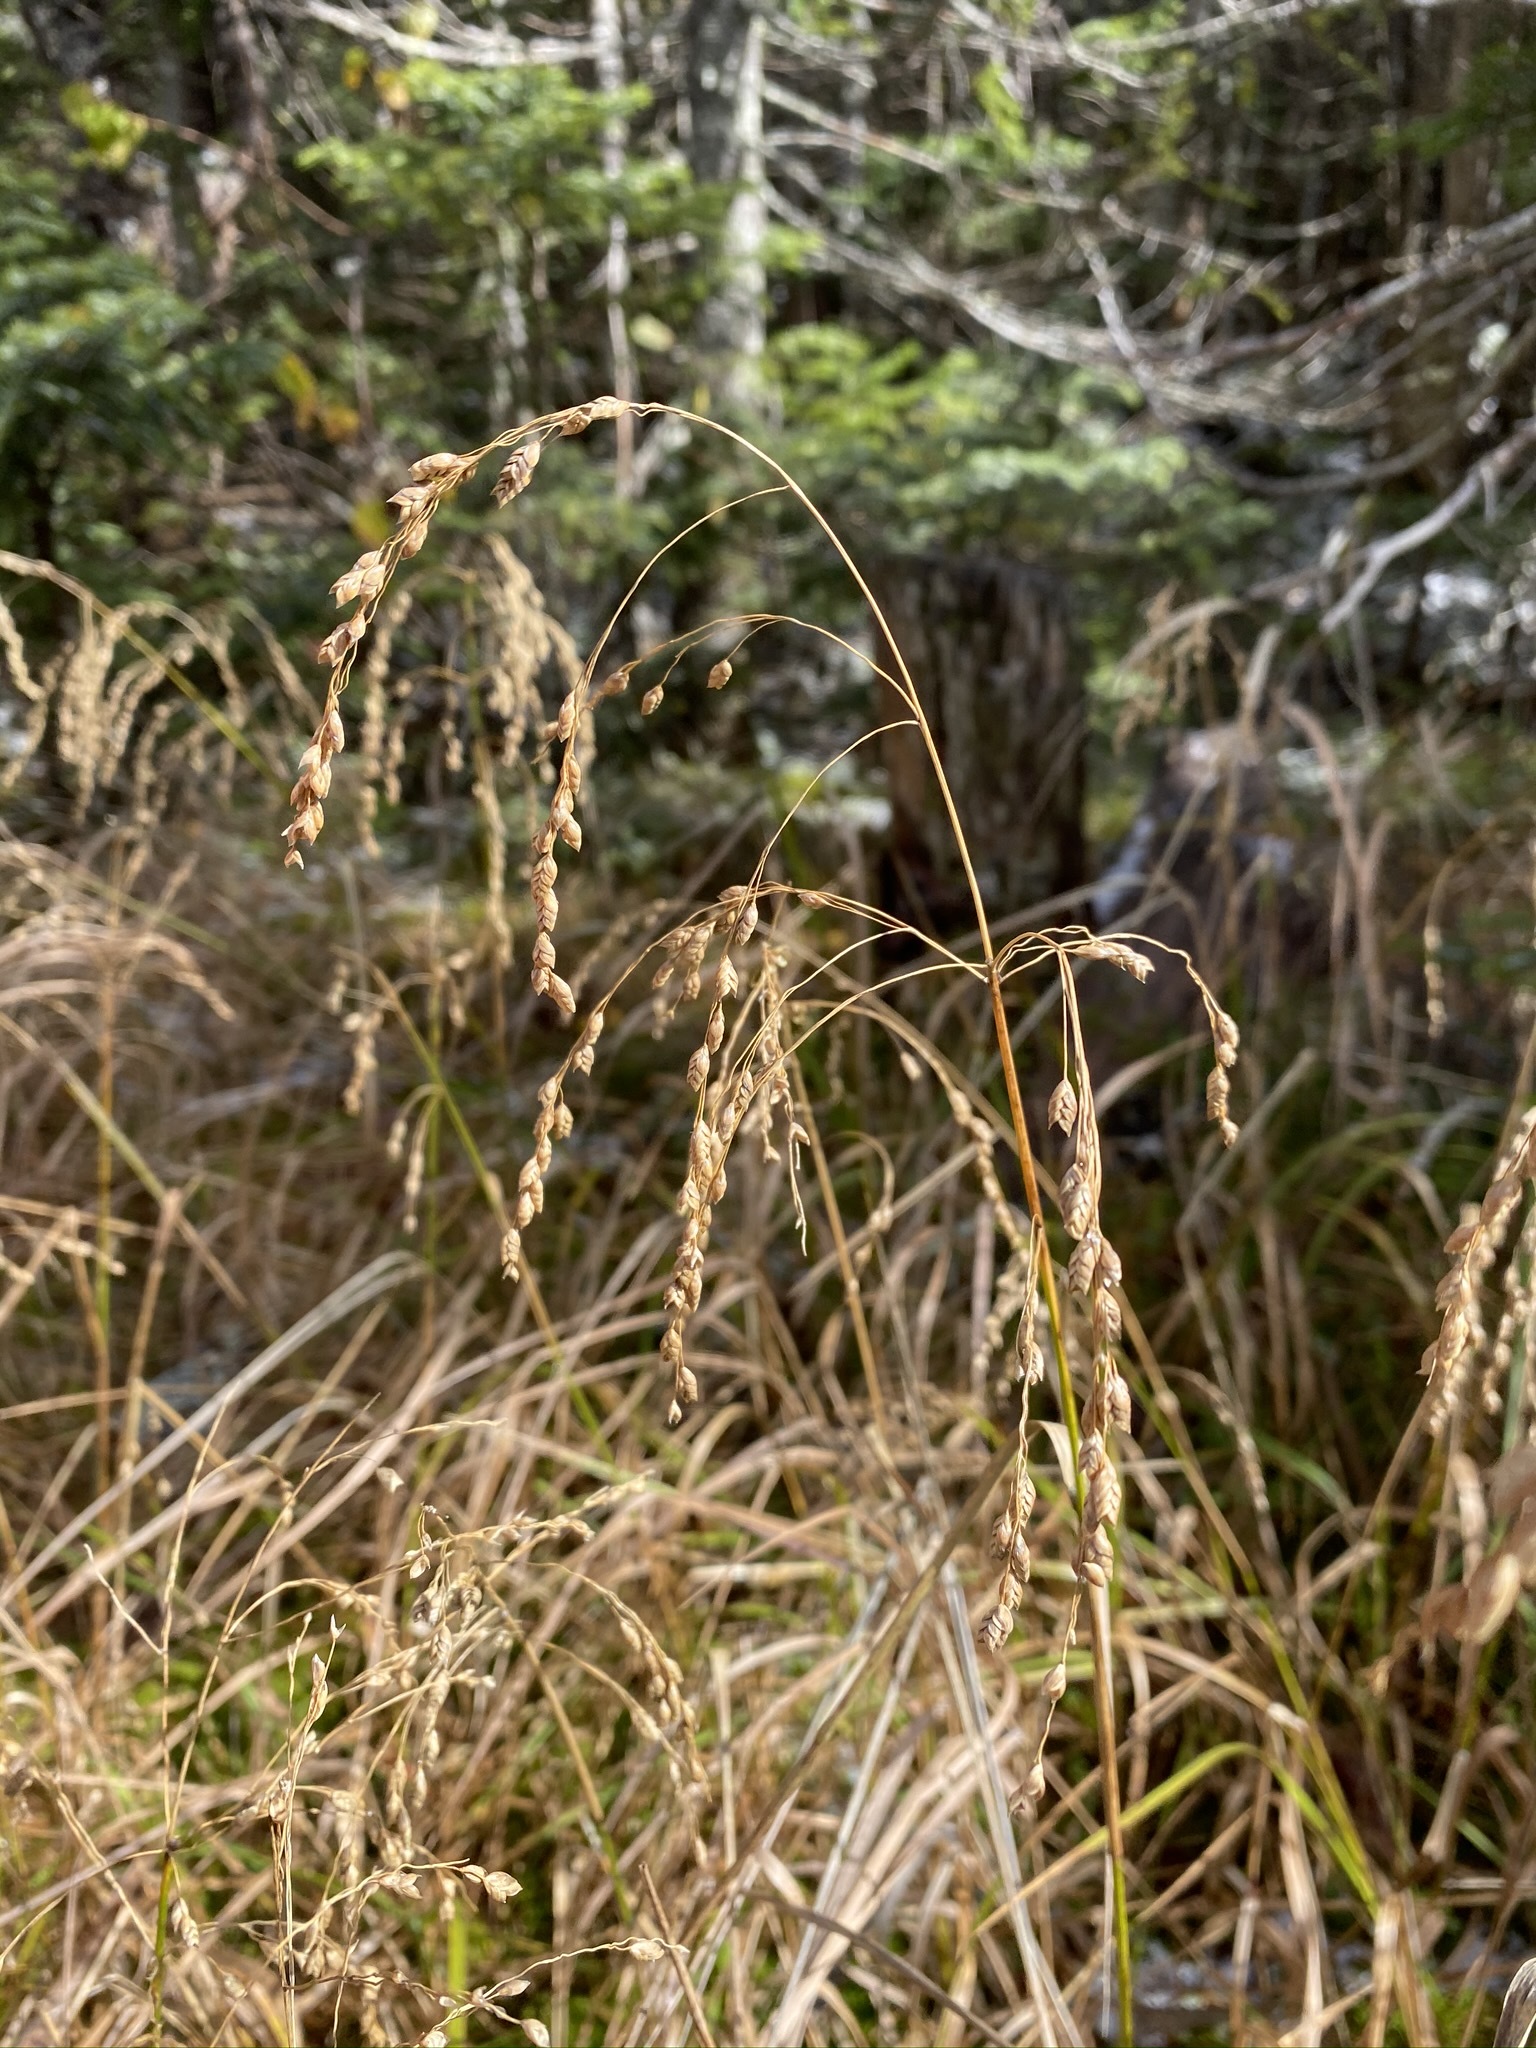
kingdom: Plantae
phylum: Tracheophyta
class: Liliopsida
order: Poales
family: Poaceae
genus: Glyceria
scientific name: Glyceria canadensis
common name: Canada mannagrass
